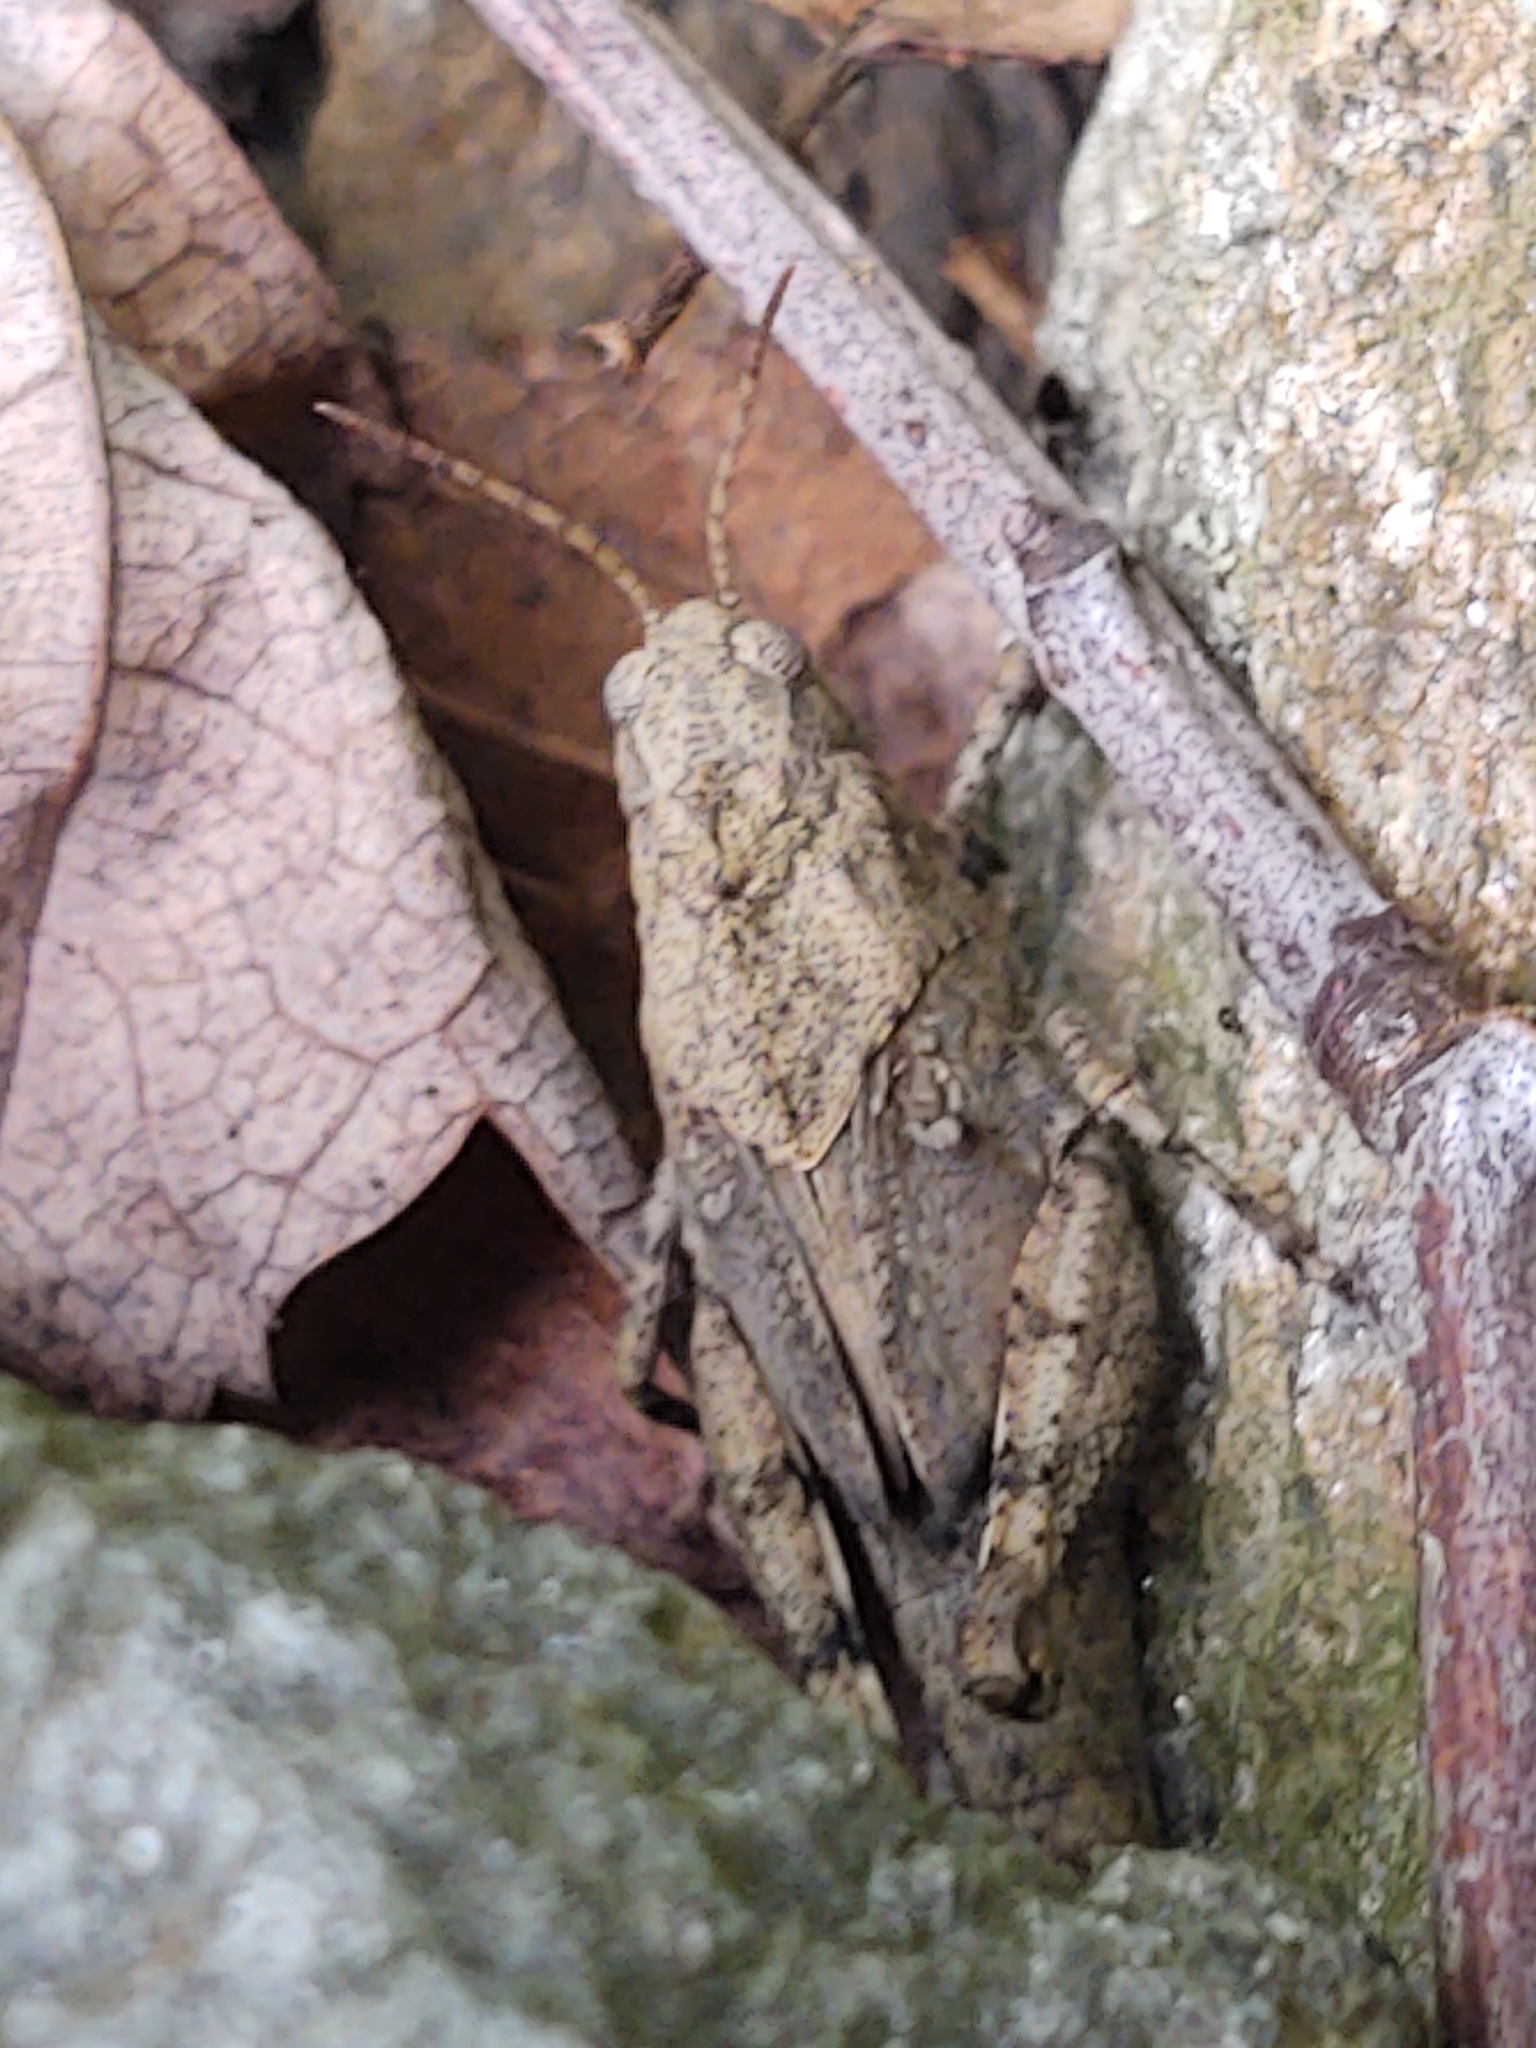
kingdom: Animalia
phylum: Arthropoda
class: Insecta
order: Orthoptera
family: Acrididae
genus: Dissosteira
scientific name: Dissosteira carolina
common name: Carolina grasshopper
